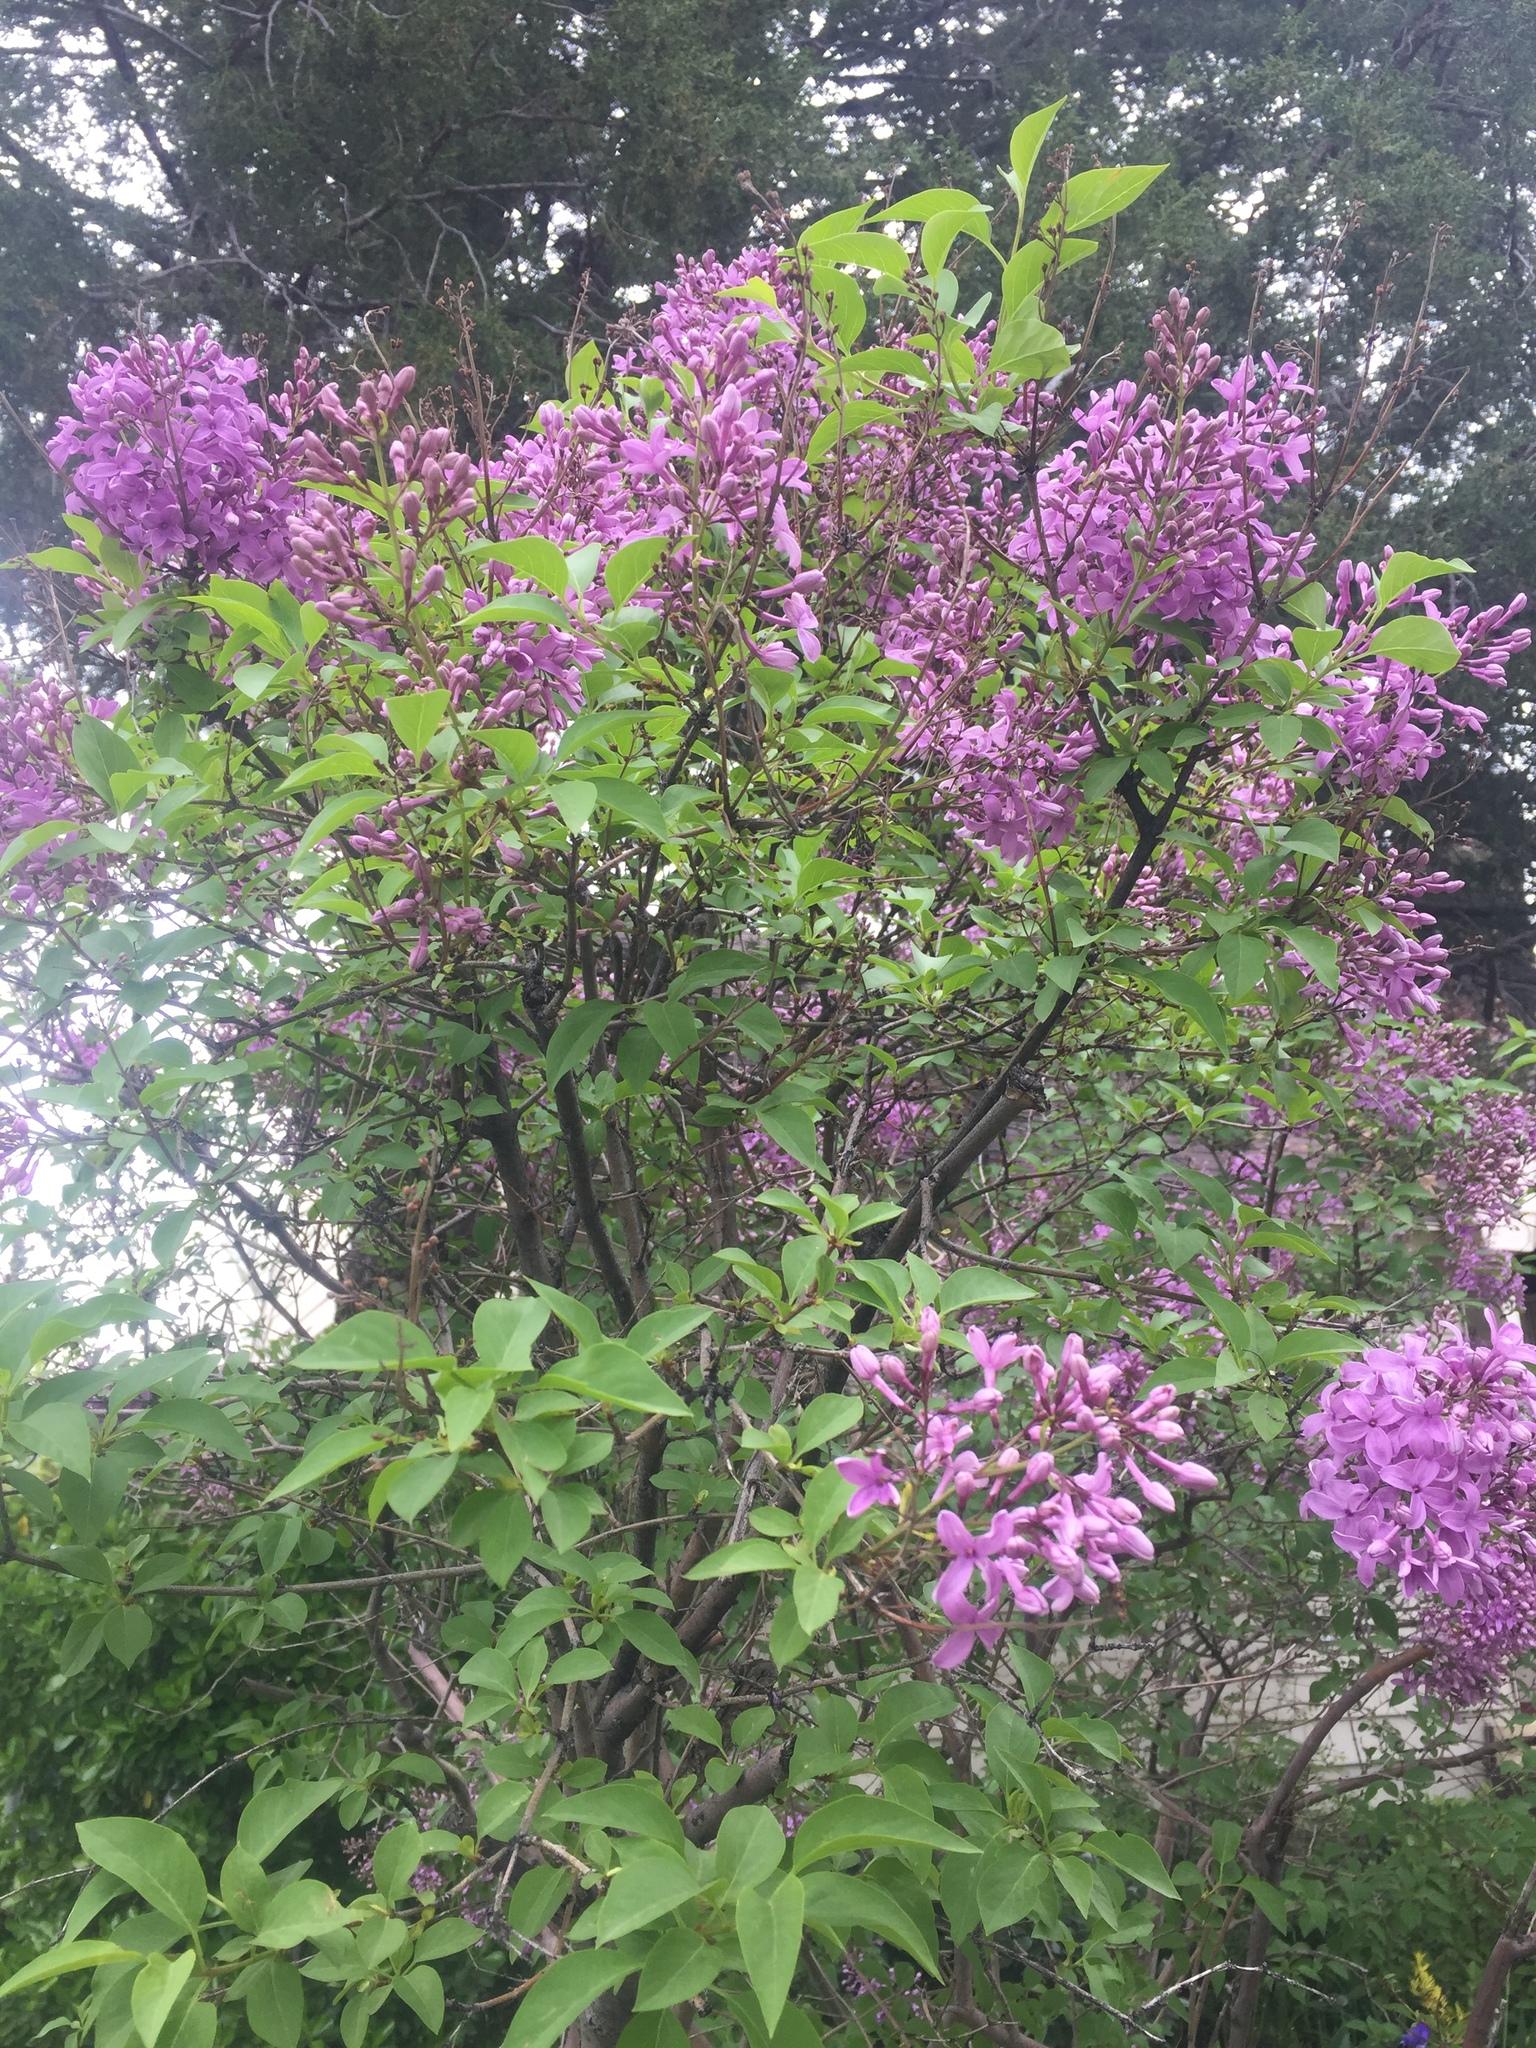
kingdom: Plantae
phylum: Tracheophyta
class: Magnoliopsida
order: Lamiales
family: Oleaceae
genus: Syringa
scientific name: Syringa vulgaris
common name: Common lilac
